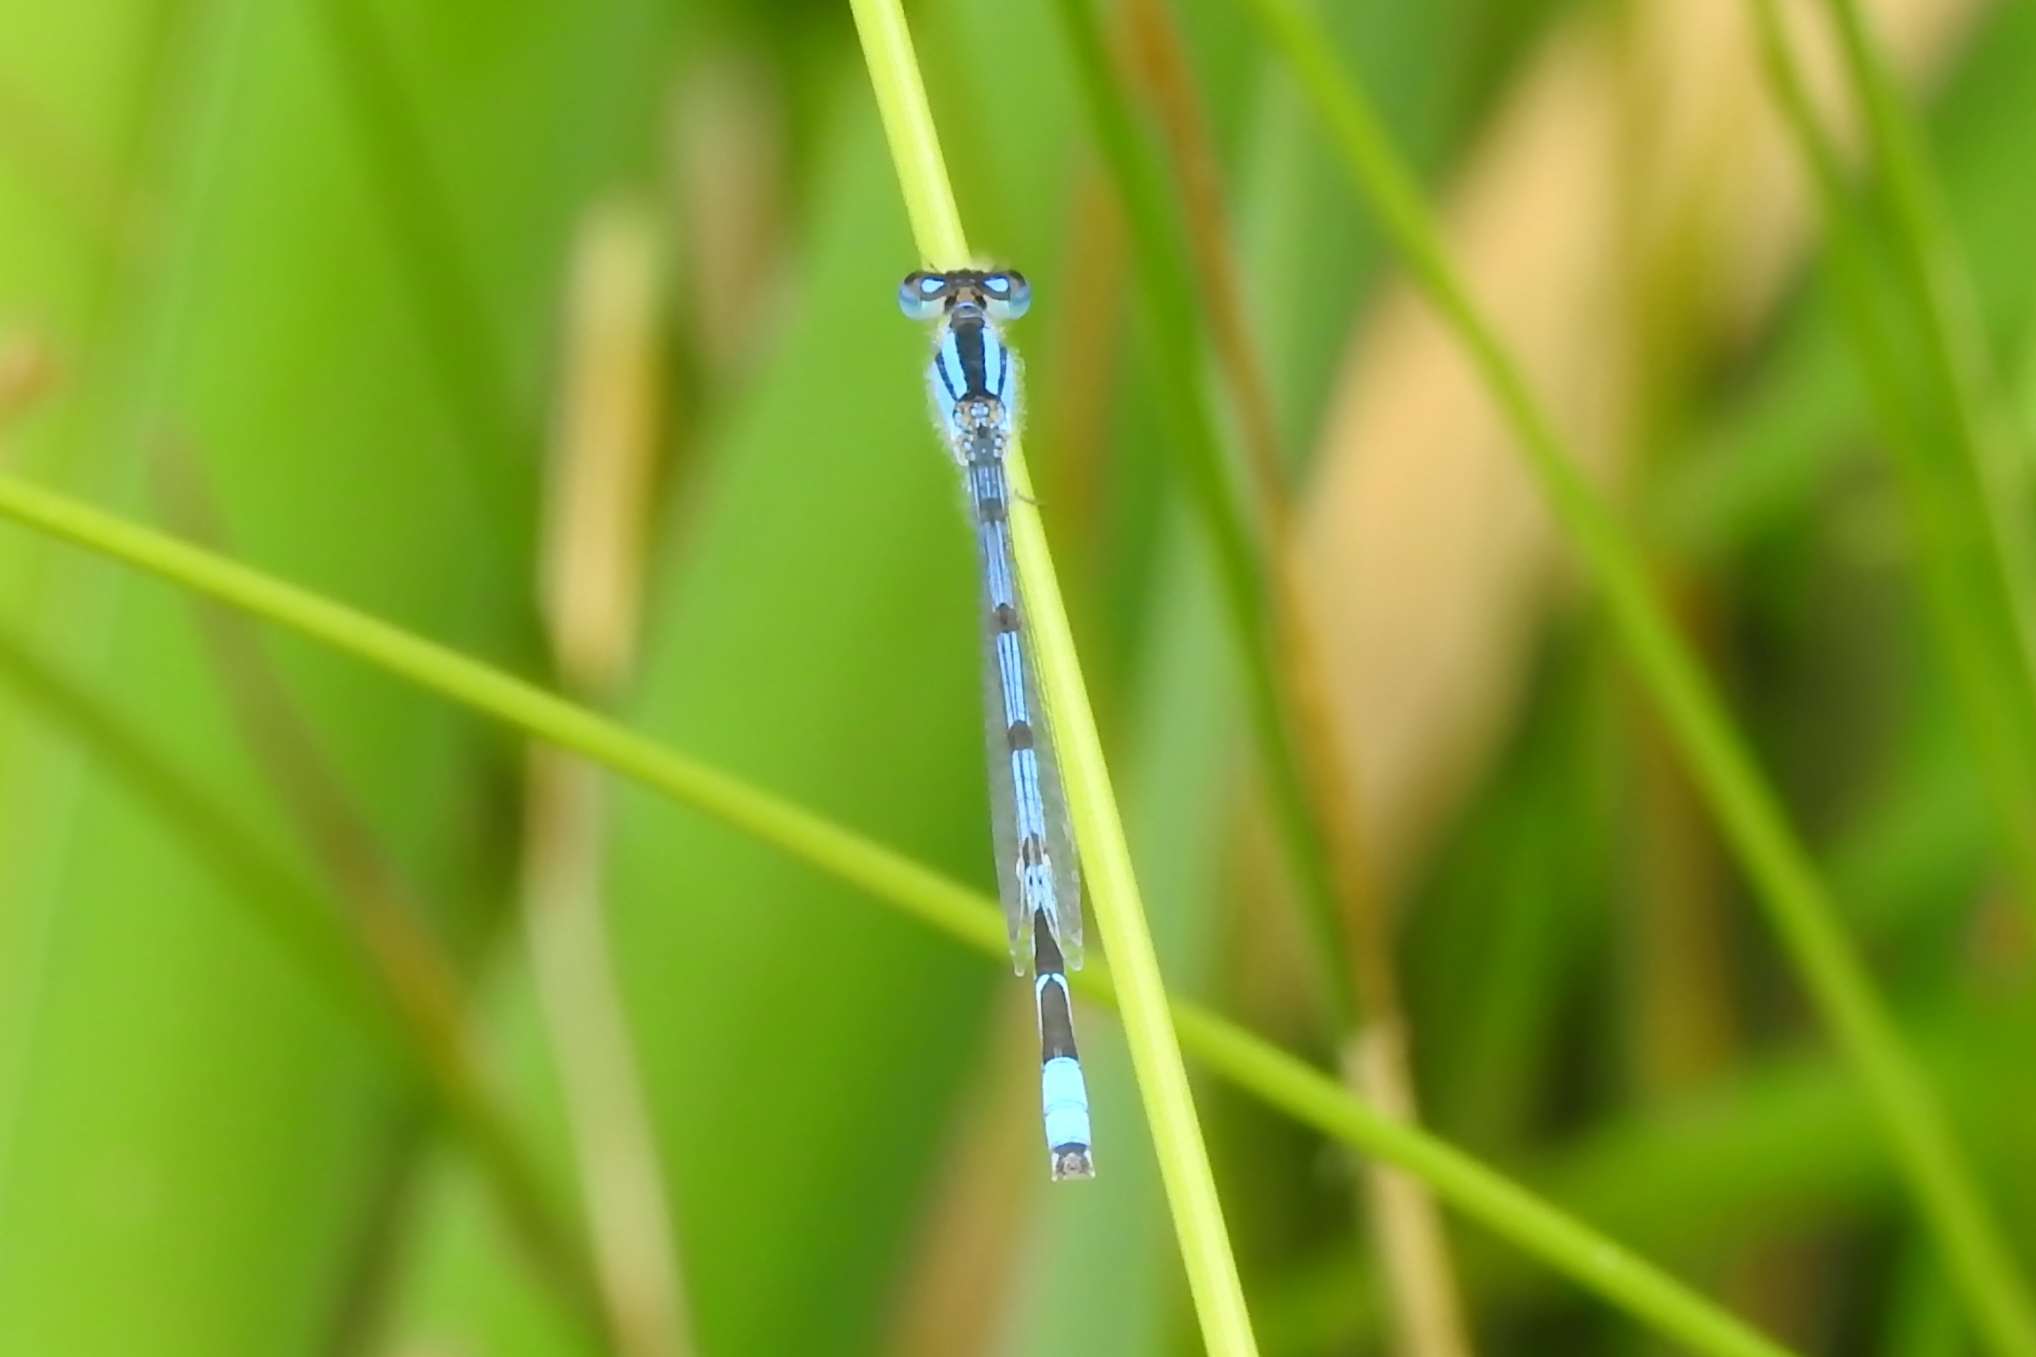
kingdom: Animalia
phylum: Arthropoda
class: Insecta
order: Odonata
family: Coenagrionidae
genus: Enallagma
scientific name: Enallagma
